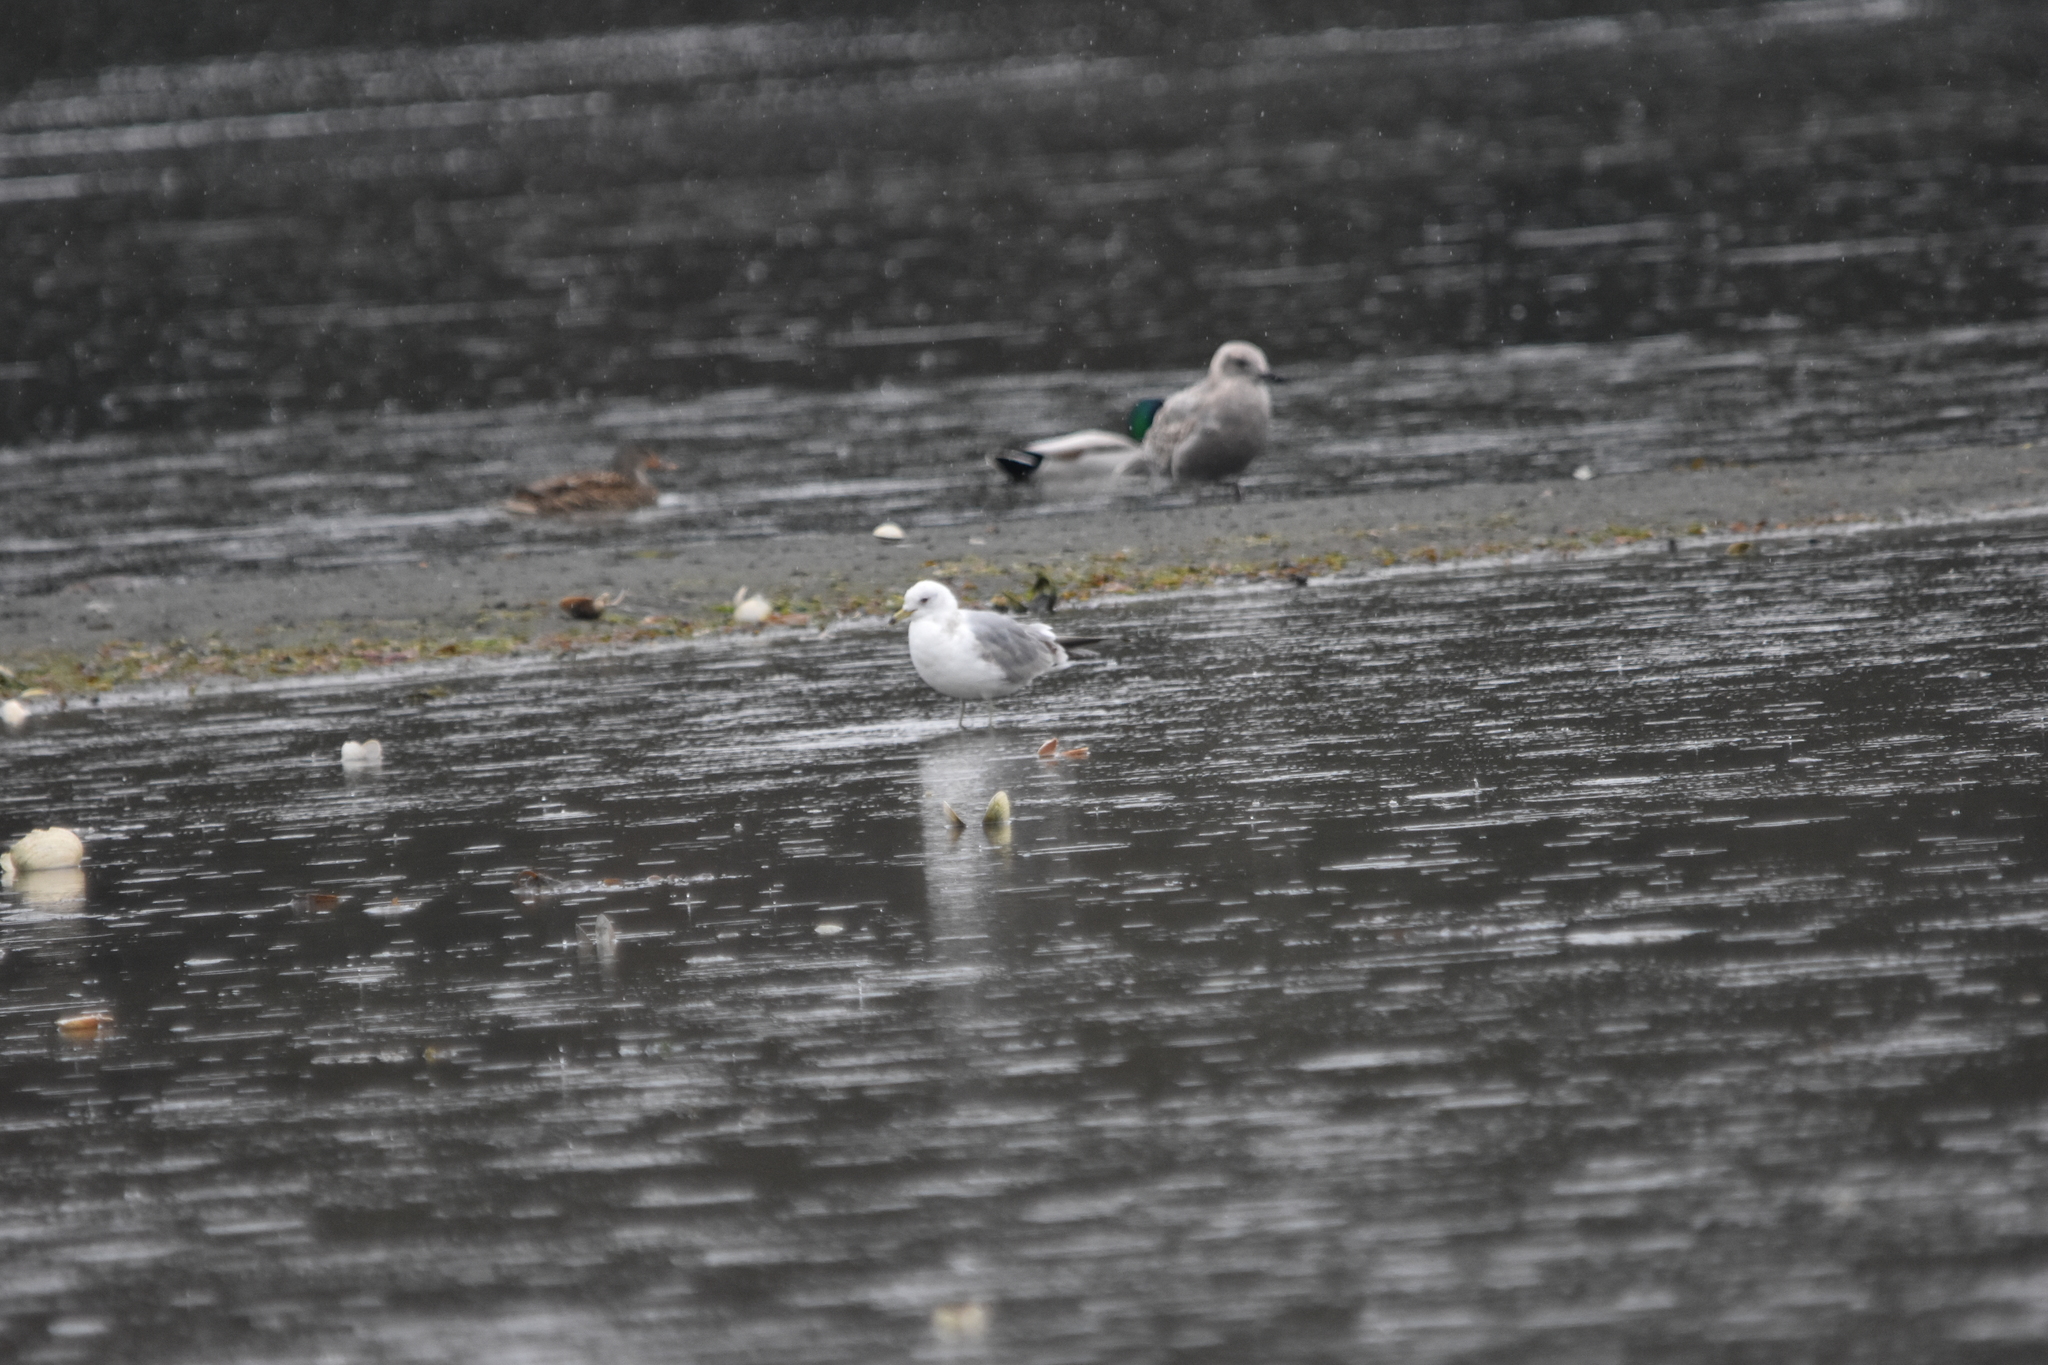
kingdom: Animalia
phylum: Chordata
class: Aves
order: Charadriiformes
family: Laridae
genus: Larus
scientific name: Larus brachyrhynchus
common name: Short-billed gull
